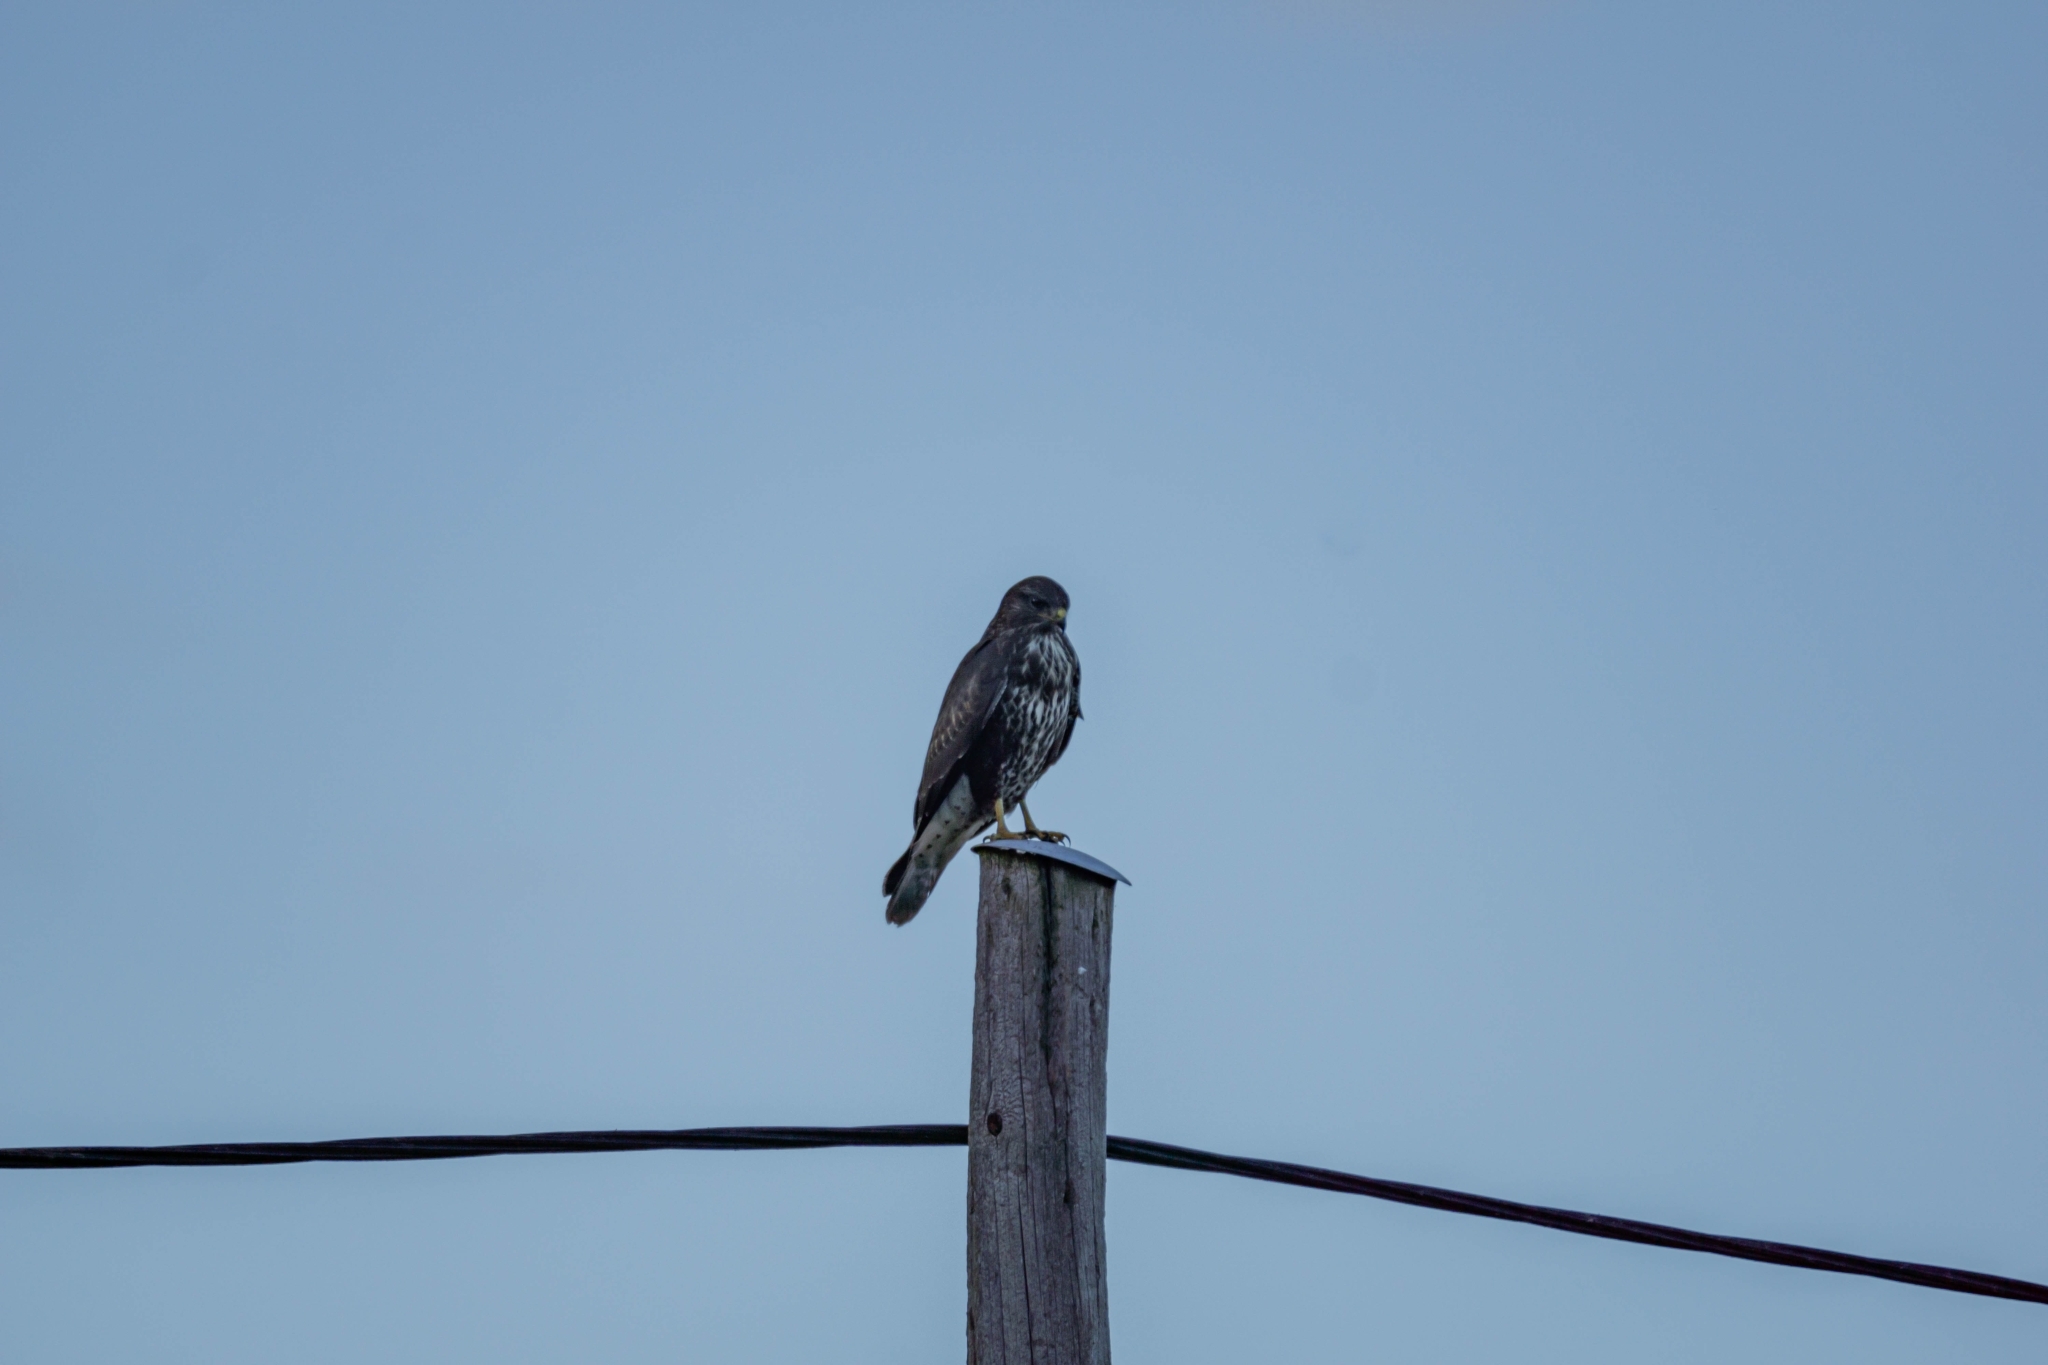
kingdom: Animalia
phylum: Chordata
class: Aves
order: Accipitriformes
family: Accipitridae
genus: Buteo
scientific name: Buteo buteo
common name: Common buzzard
